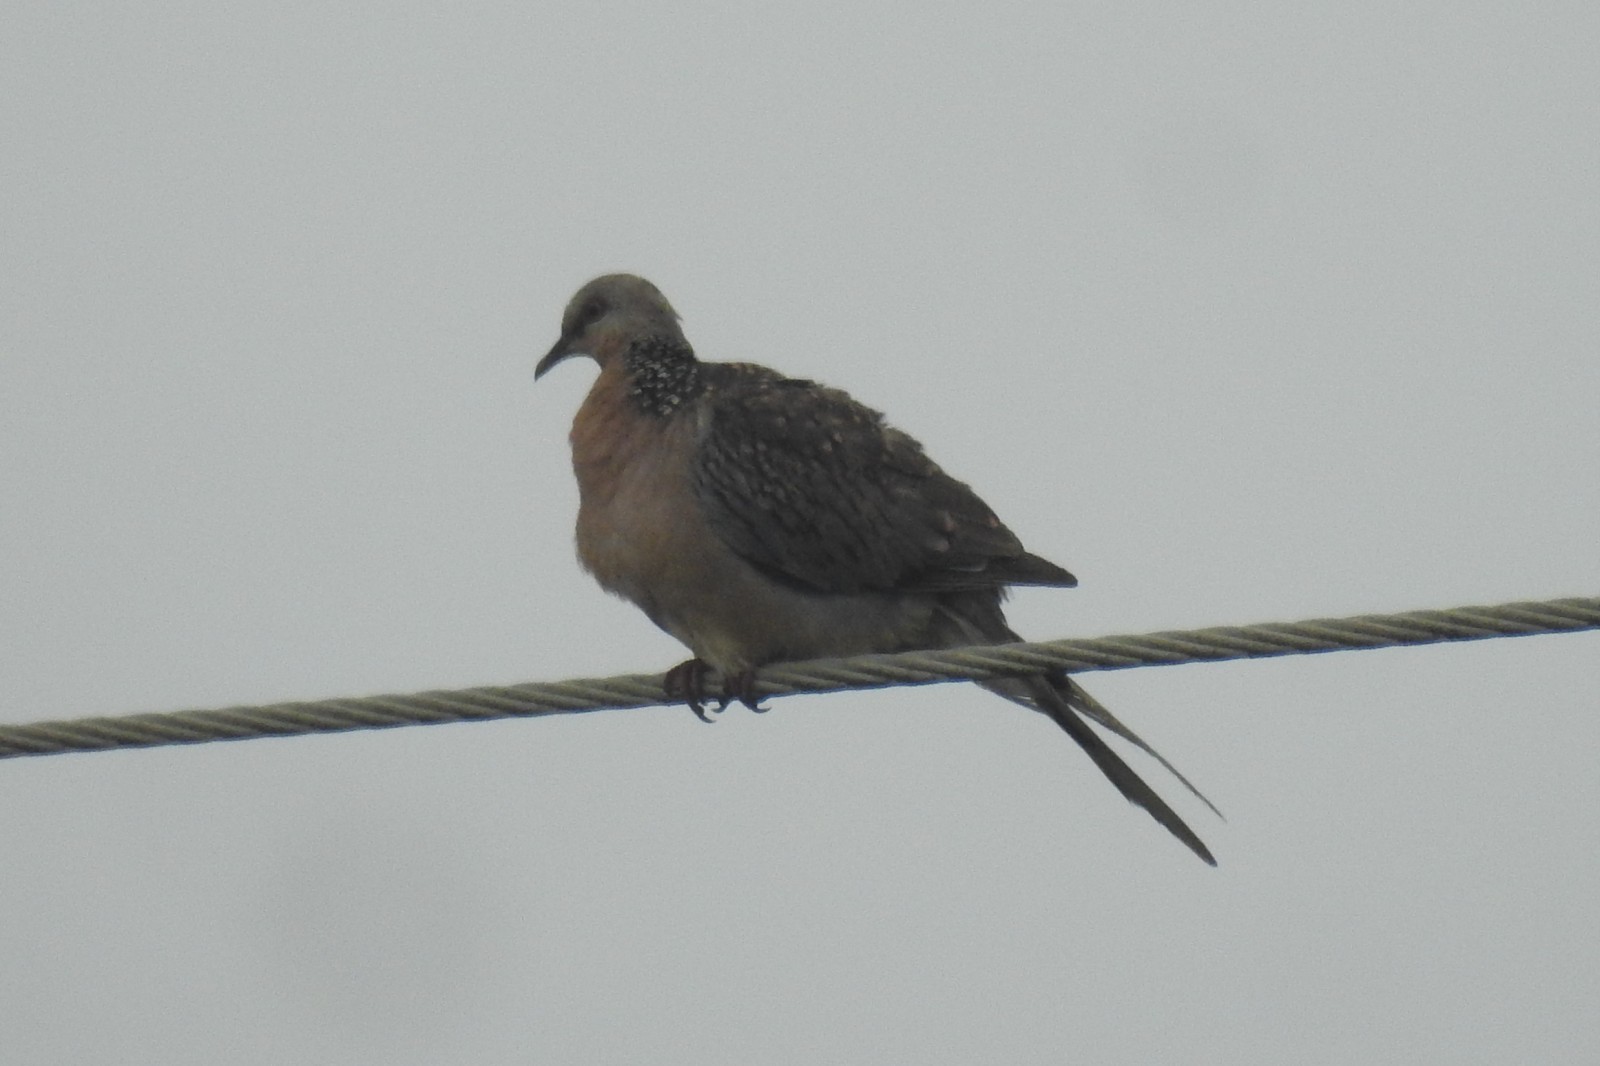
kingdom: Animalia
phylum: Chordata
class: Aves
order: Columbiformes
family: Columbidae
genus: Spilopelia
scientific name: Spilopelia chinensis
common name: Spotted dove
